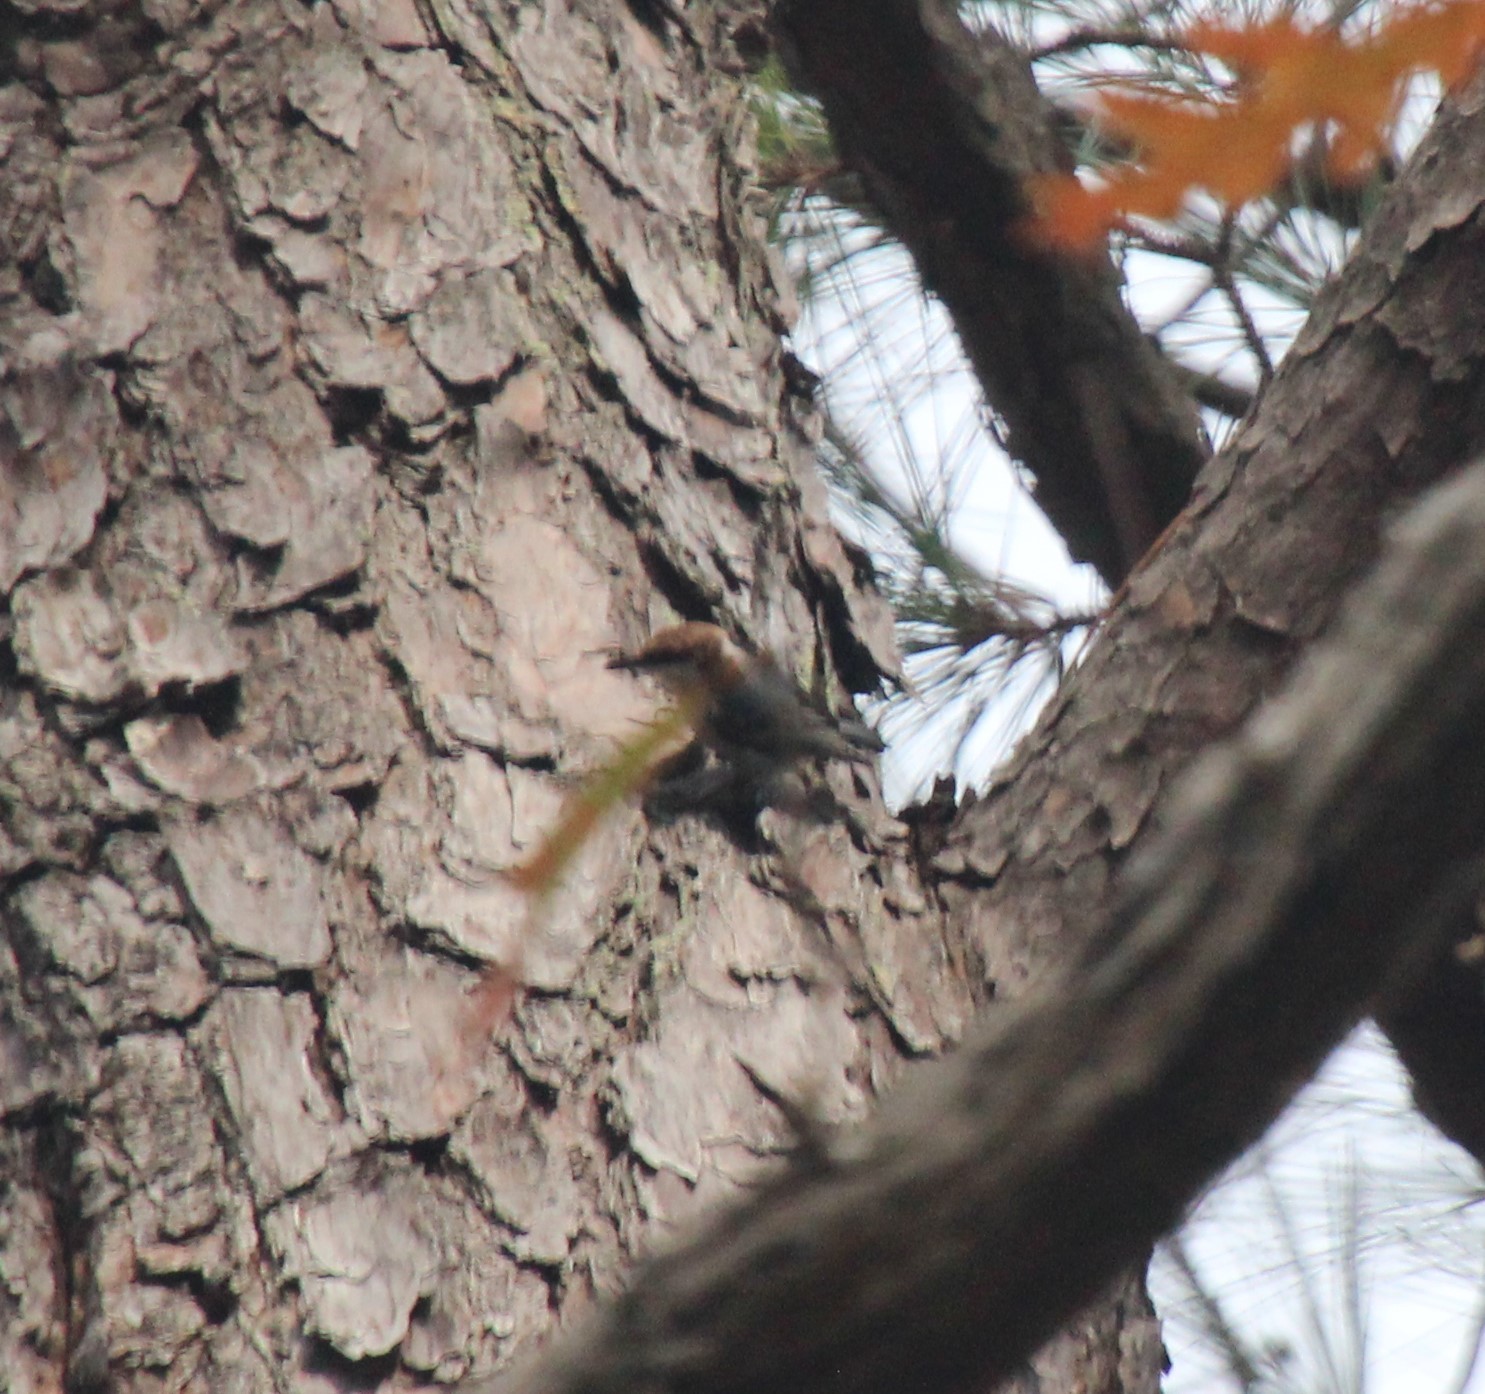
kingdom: Animalia
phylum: Chordata
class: Aves
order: Passeriformes
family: Sittidae
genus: Sitta
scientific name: Sitta pusilla
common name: Brown-headed nuthatch
